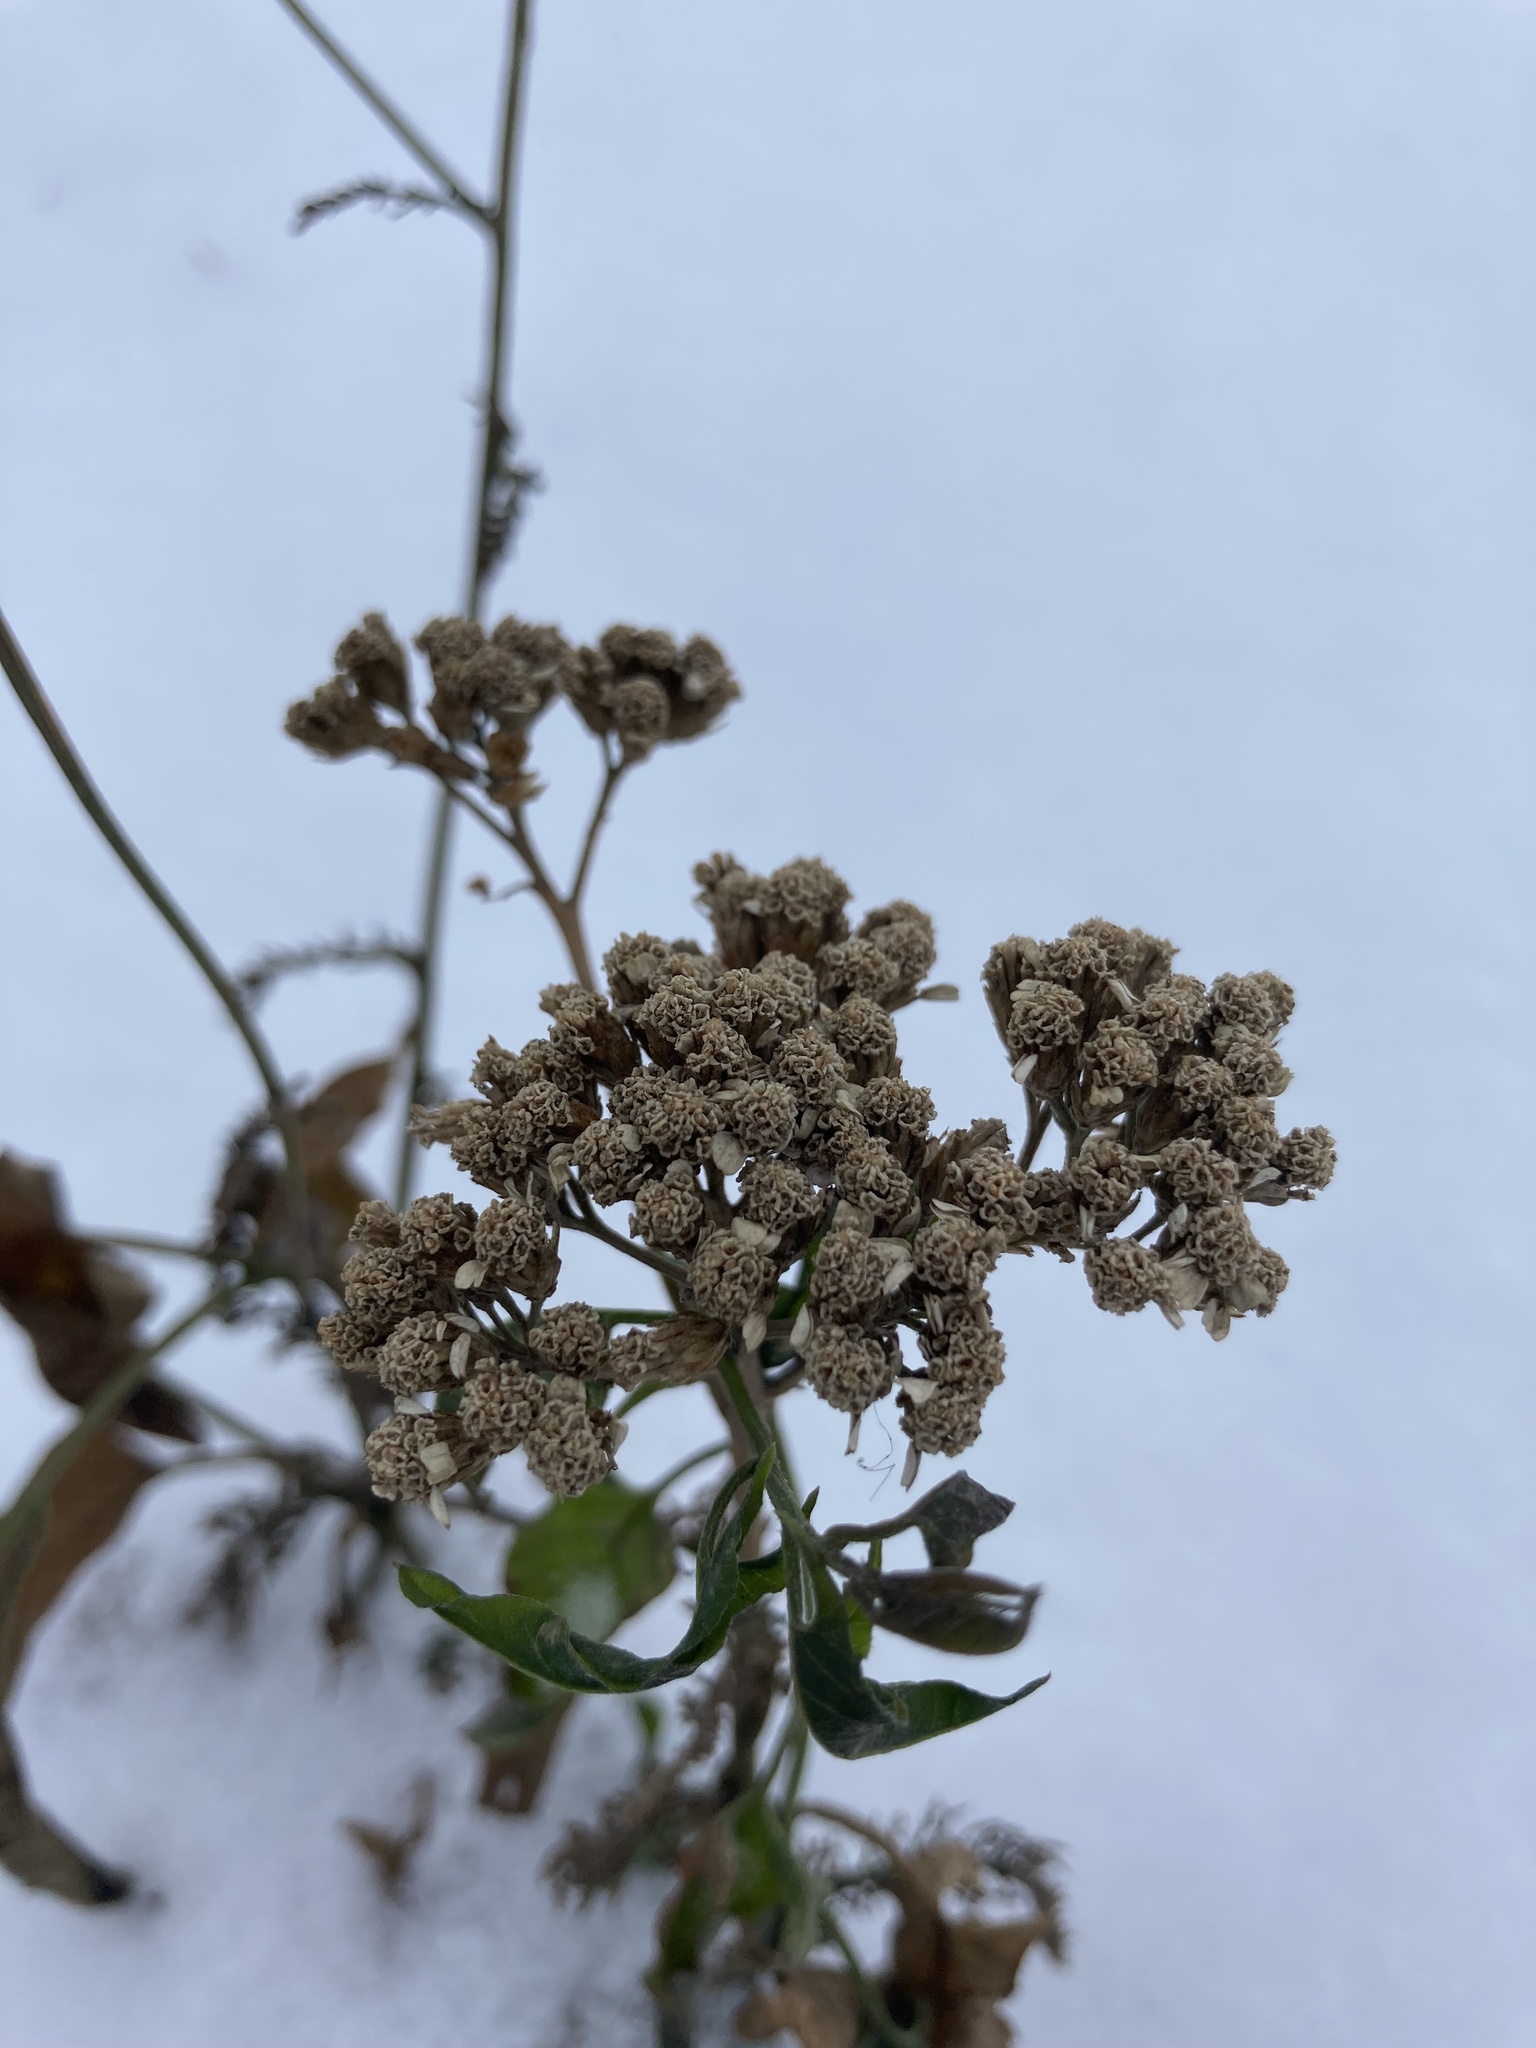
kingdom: Plantae
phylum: Tracheophyta
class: Magnoliopsida
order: Asterales
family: Asteraceae
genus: Achillea
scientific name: Achillea
